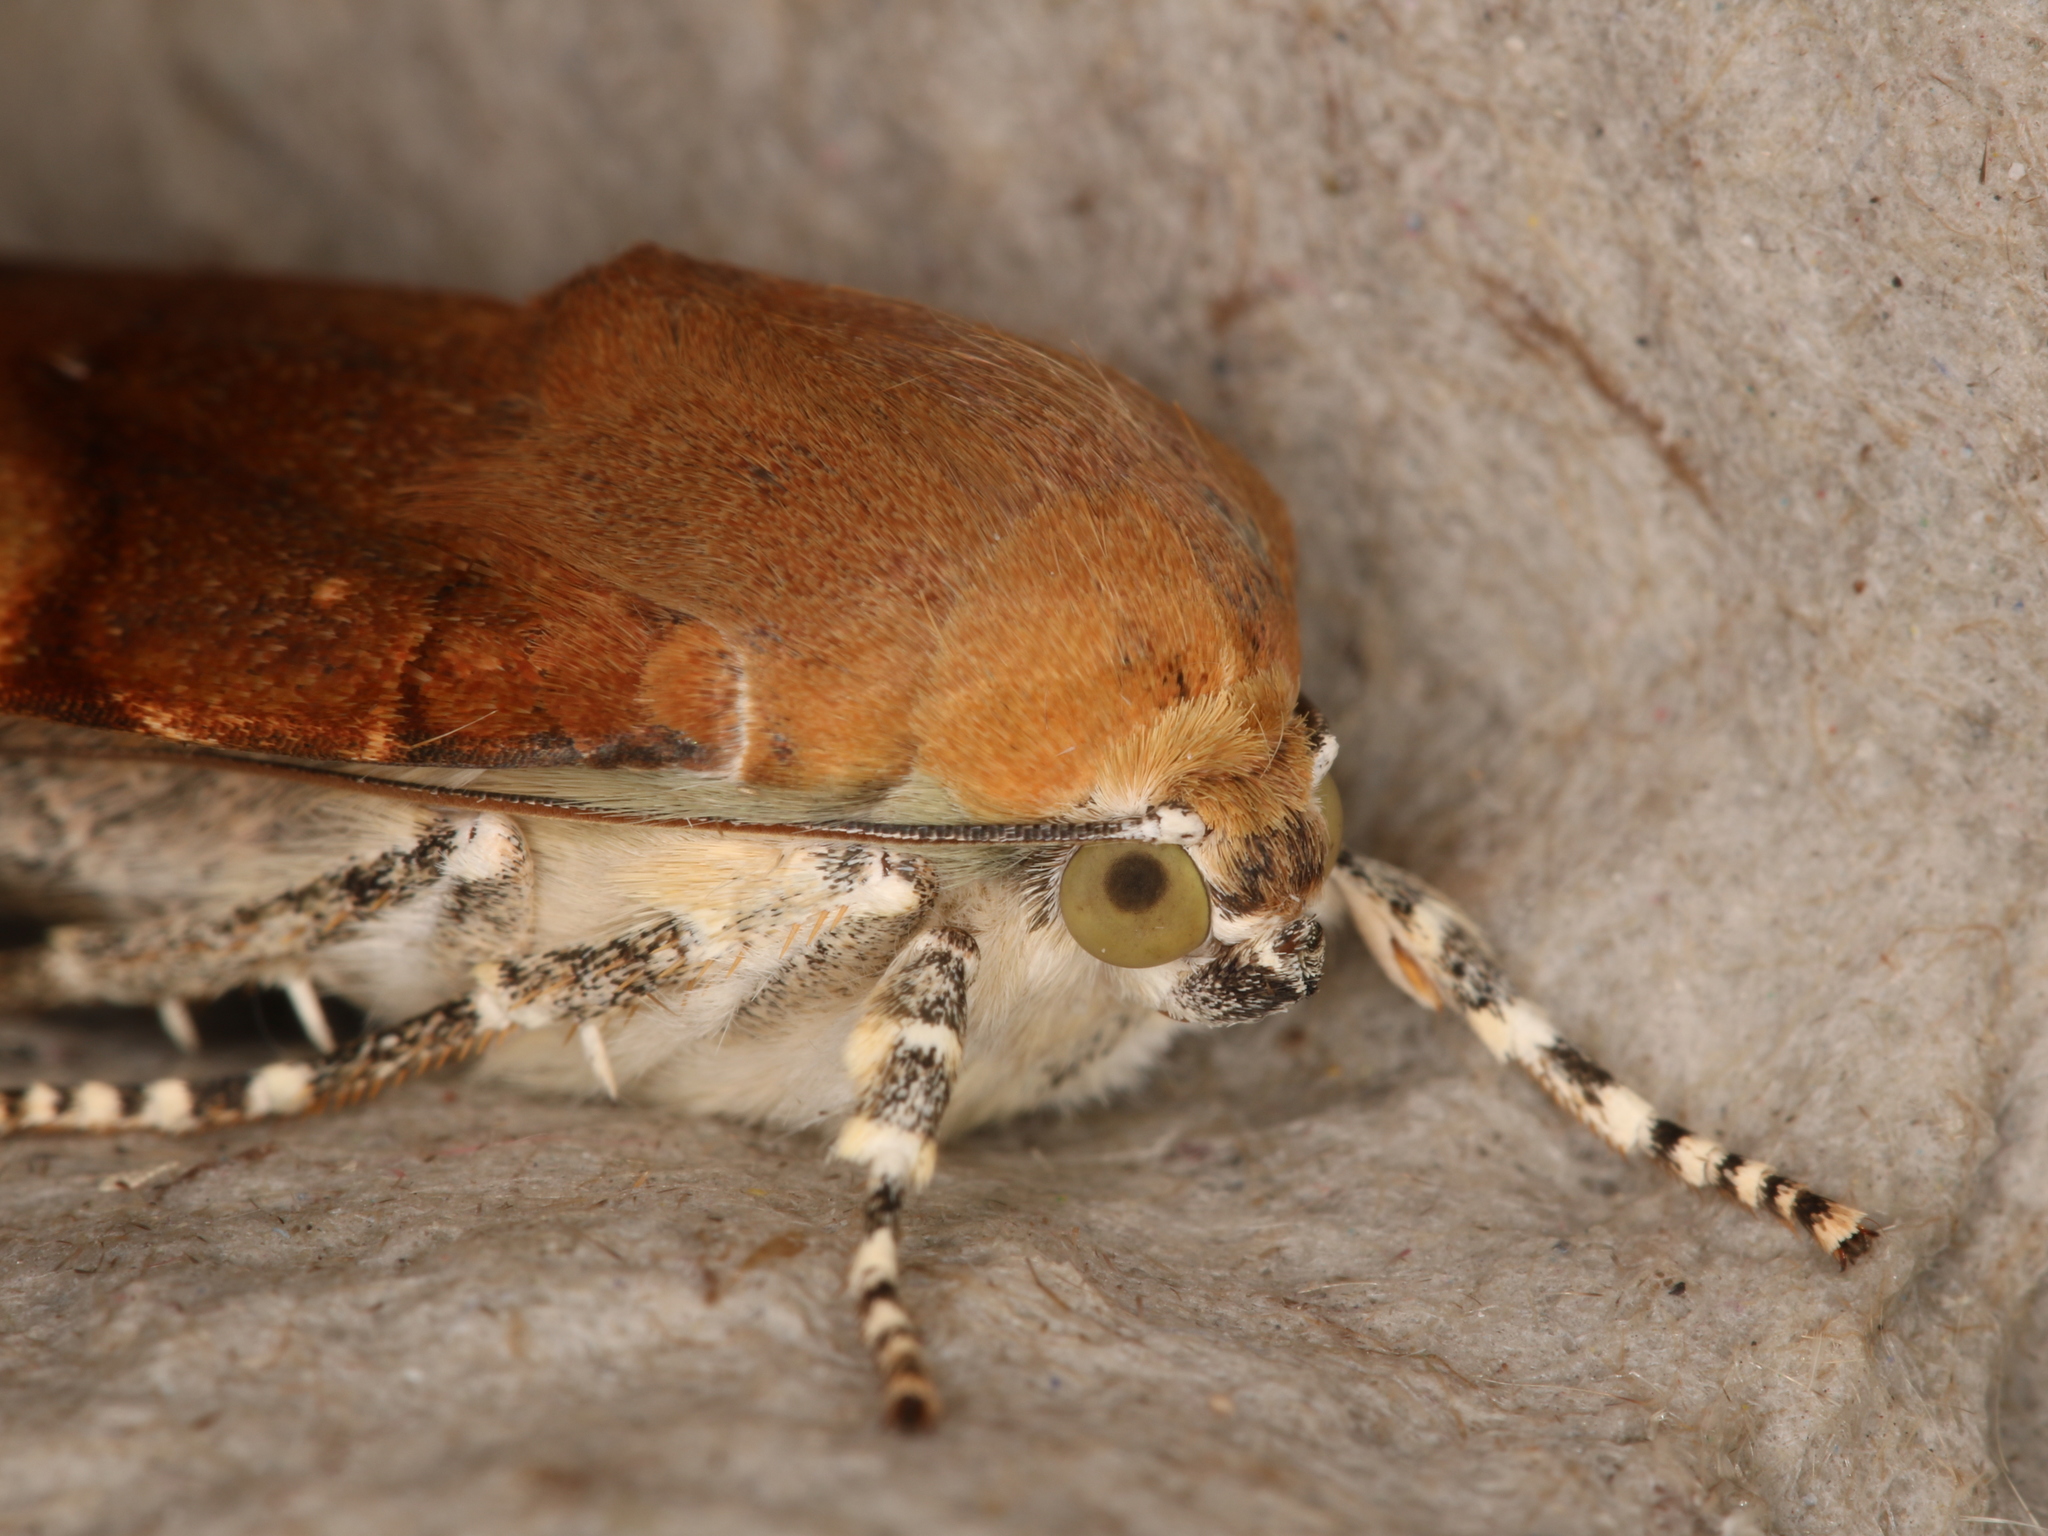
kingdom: Animalia
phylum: Arthropoda
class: Insecta
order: Lepidoptera
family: Noctuidae
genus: Noctua
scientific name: Noctua fimbriata
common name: Broad-bordered yellow underwing
